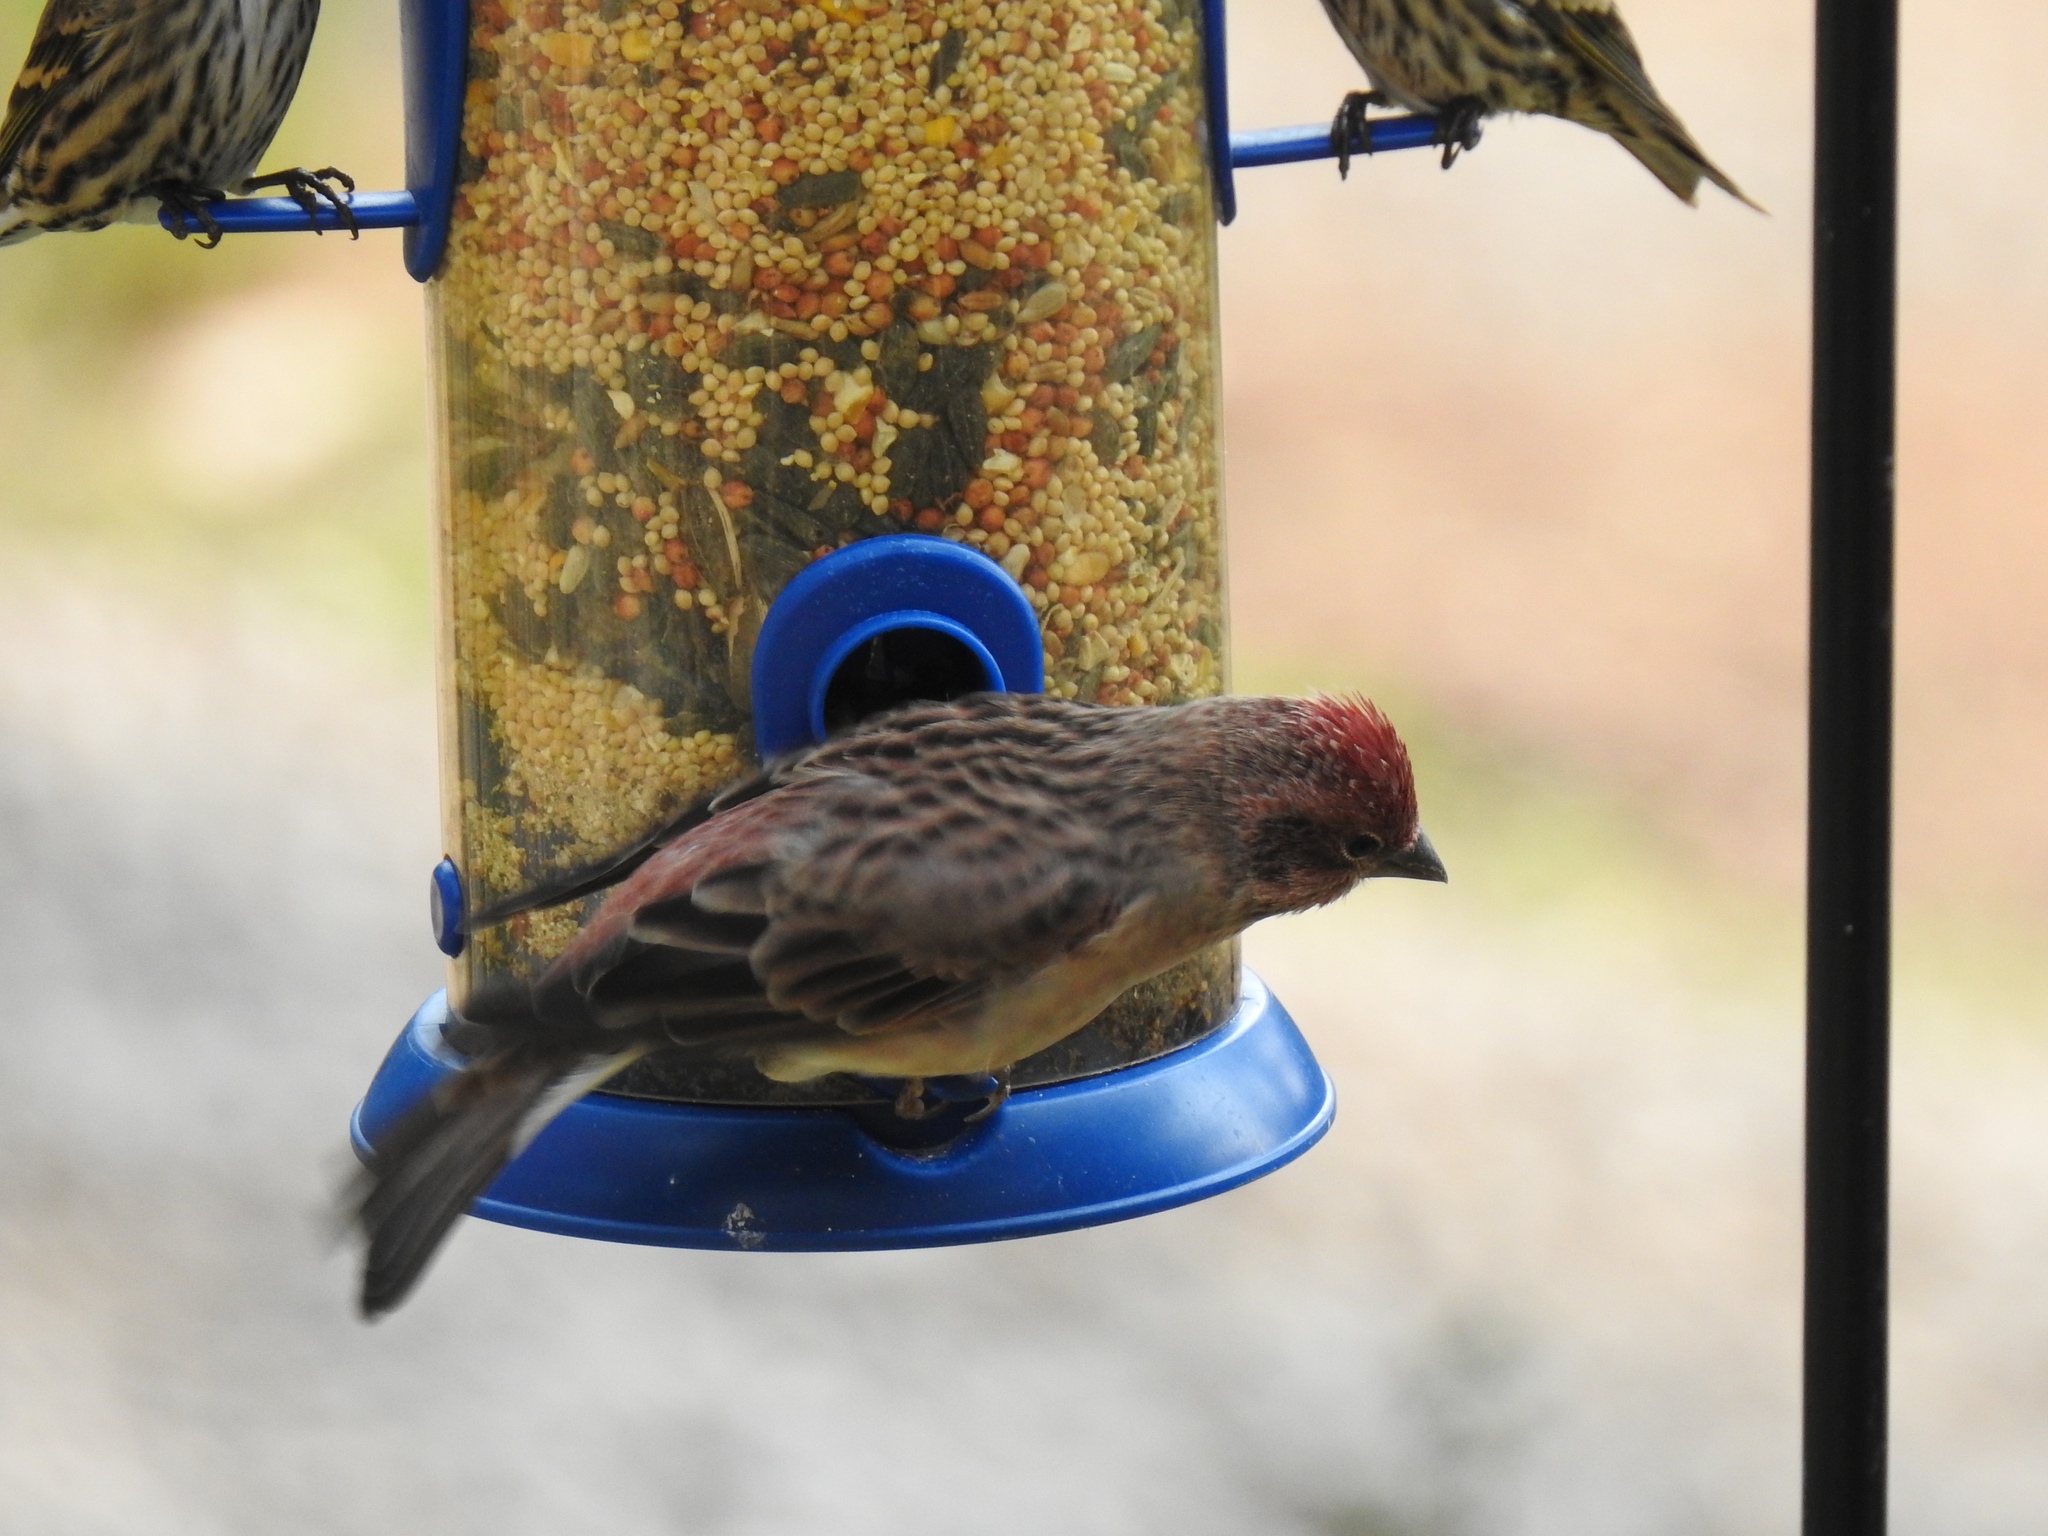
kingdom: Animalia
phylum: Chordata
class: Aves
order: Passeriformes
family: Fringillidae
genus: Haemorhous
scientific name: Haemorhous cassinii
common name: Cassin's finch
